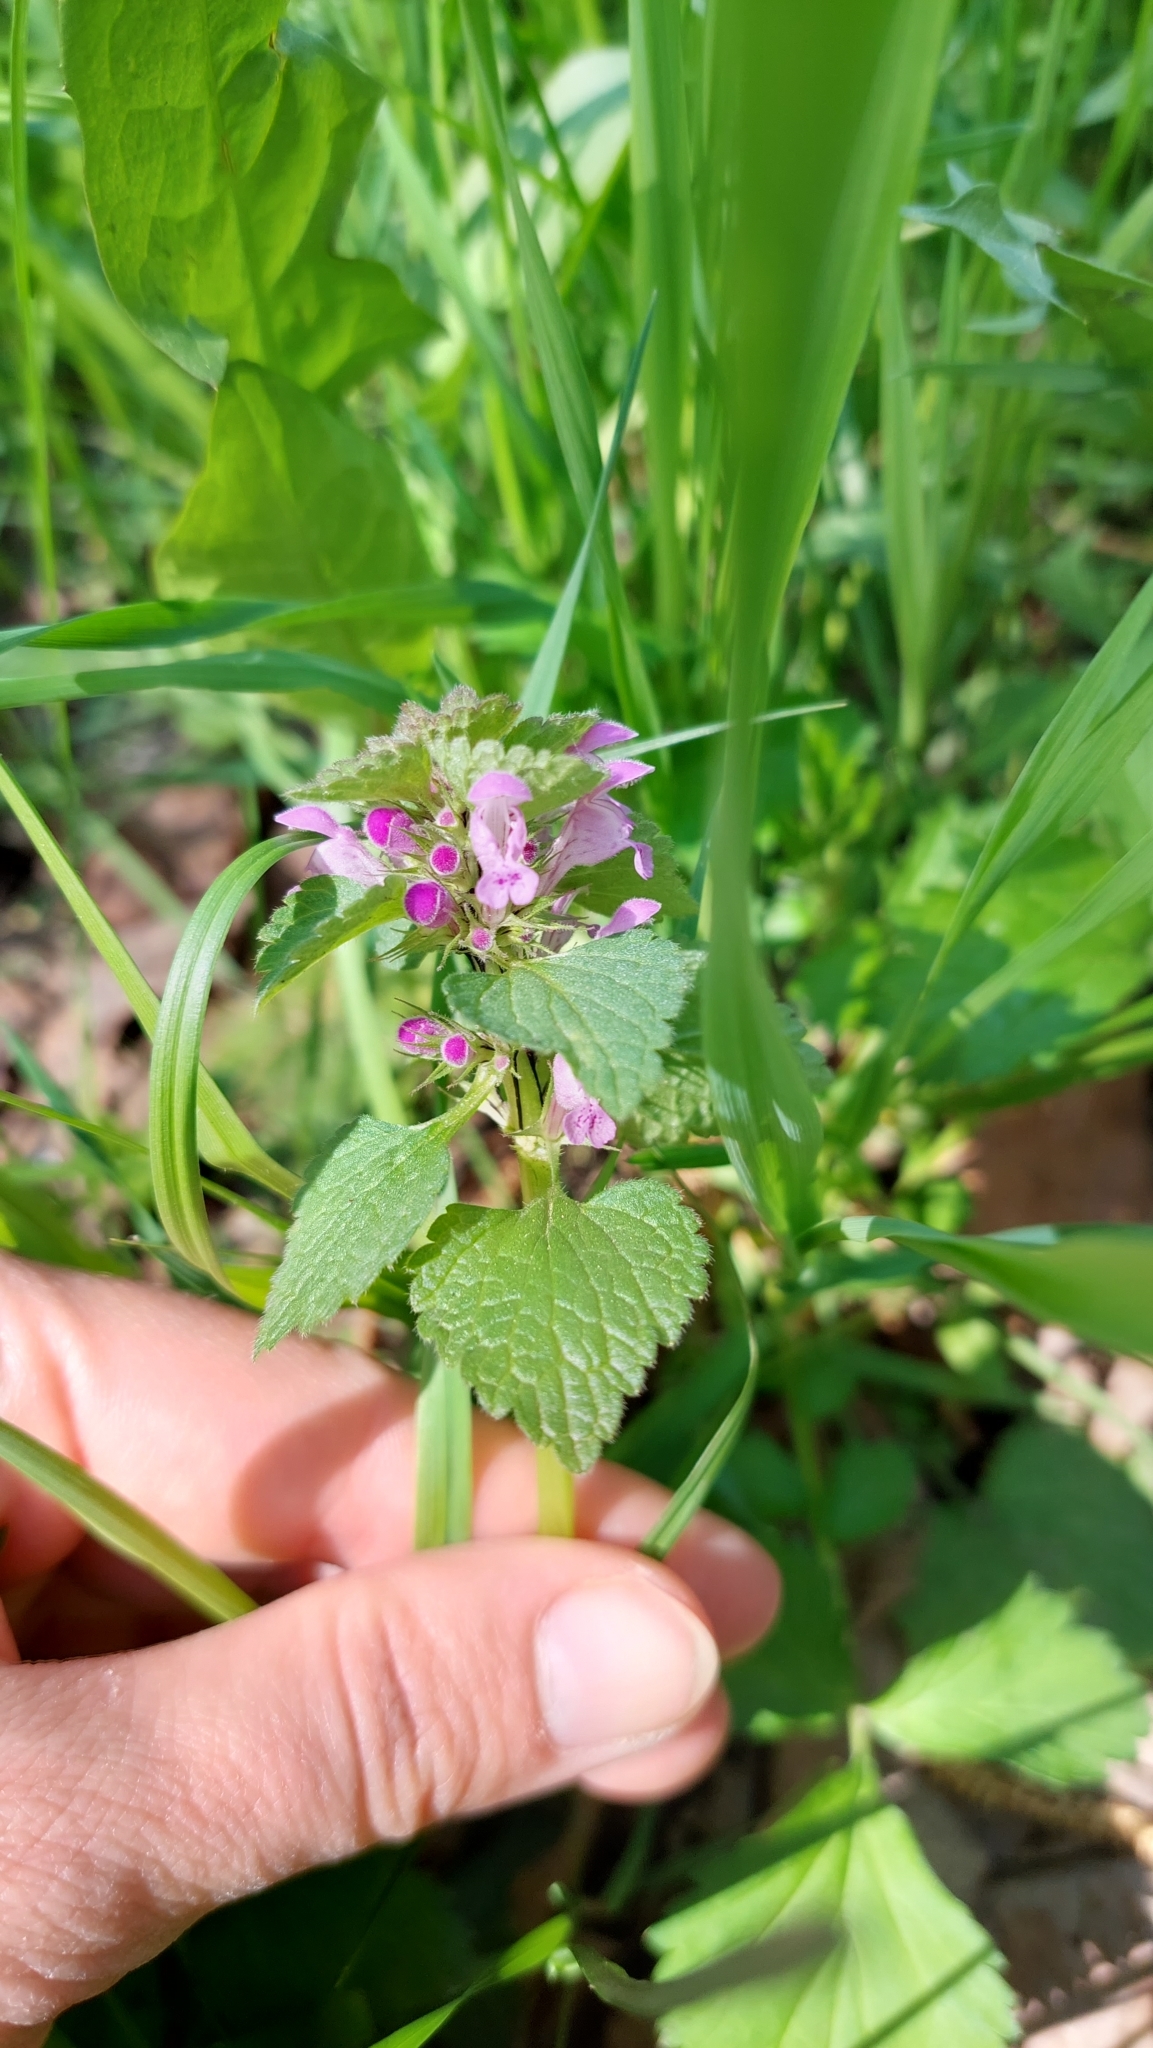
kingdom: Plantae
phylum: Tracheophyta
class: Magnoliopsida
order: Lamiales
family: Lamiaceae
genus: Lamium
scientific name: Lamium purpureum
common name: Red dead-nettle
